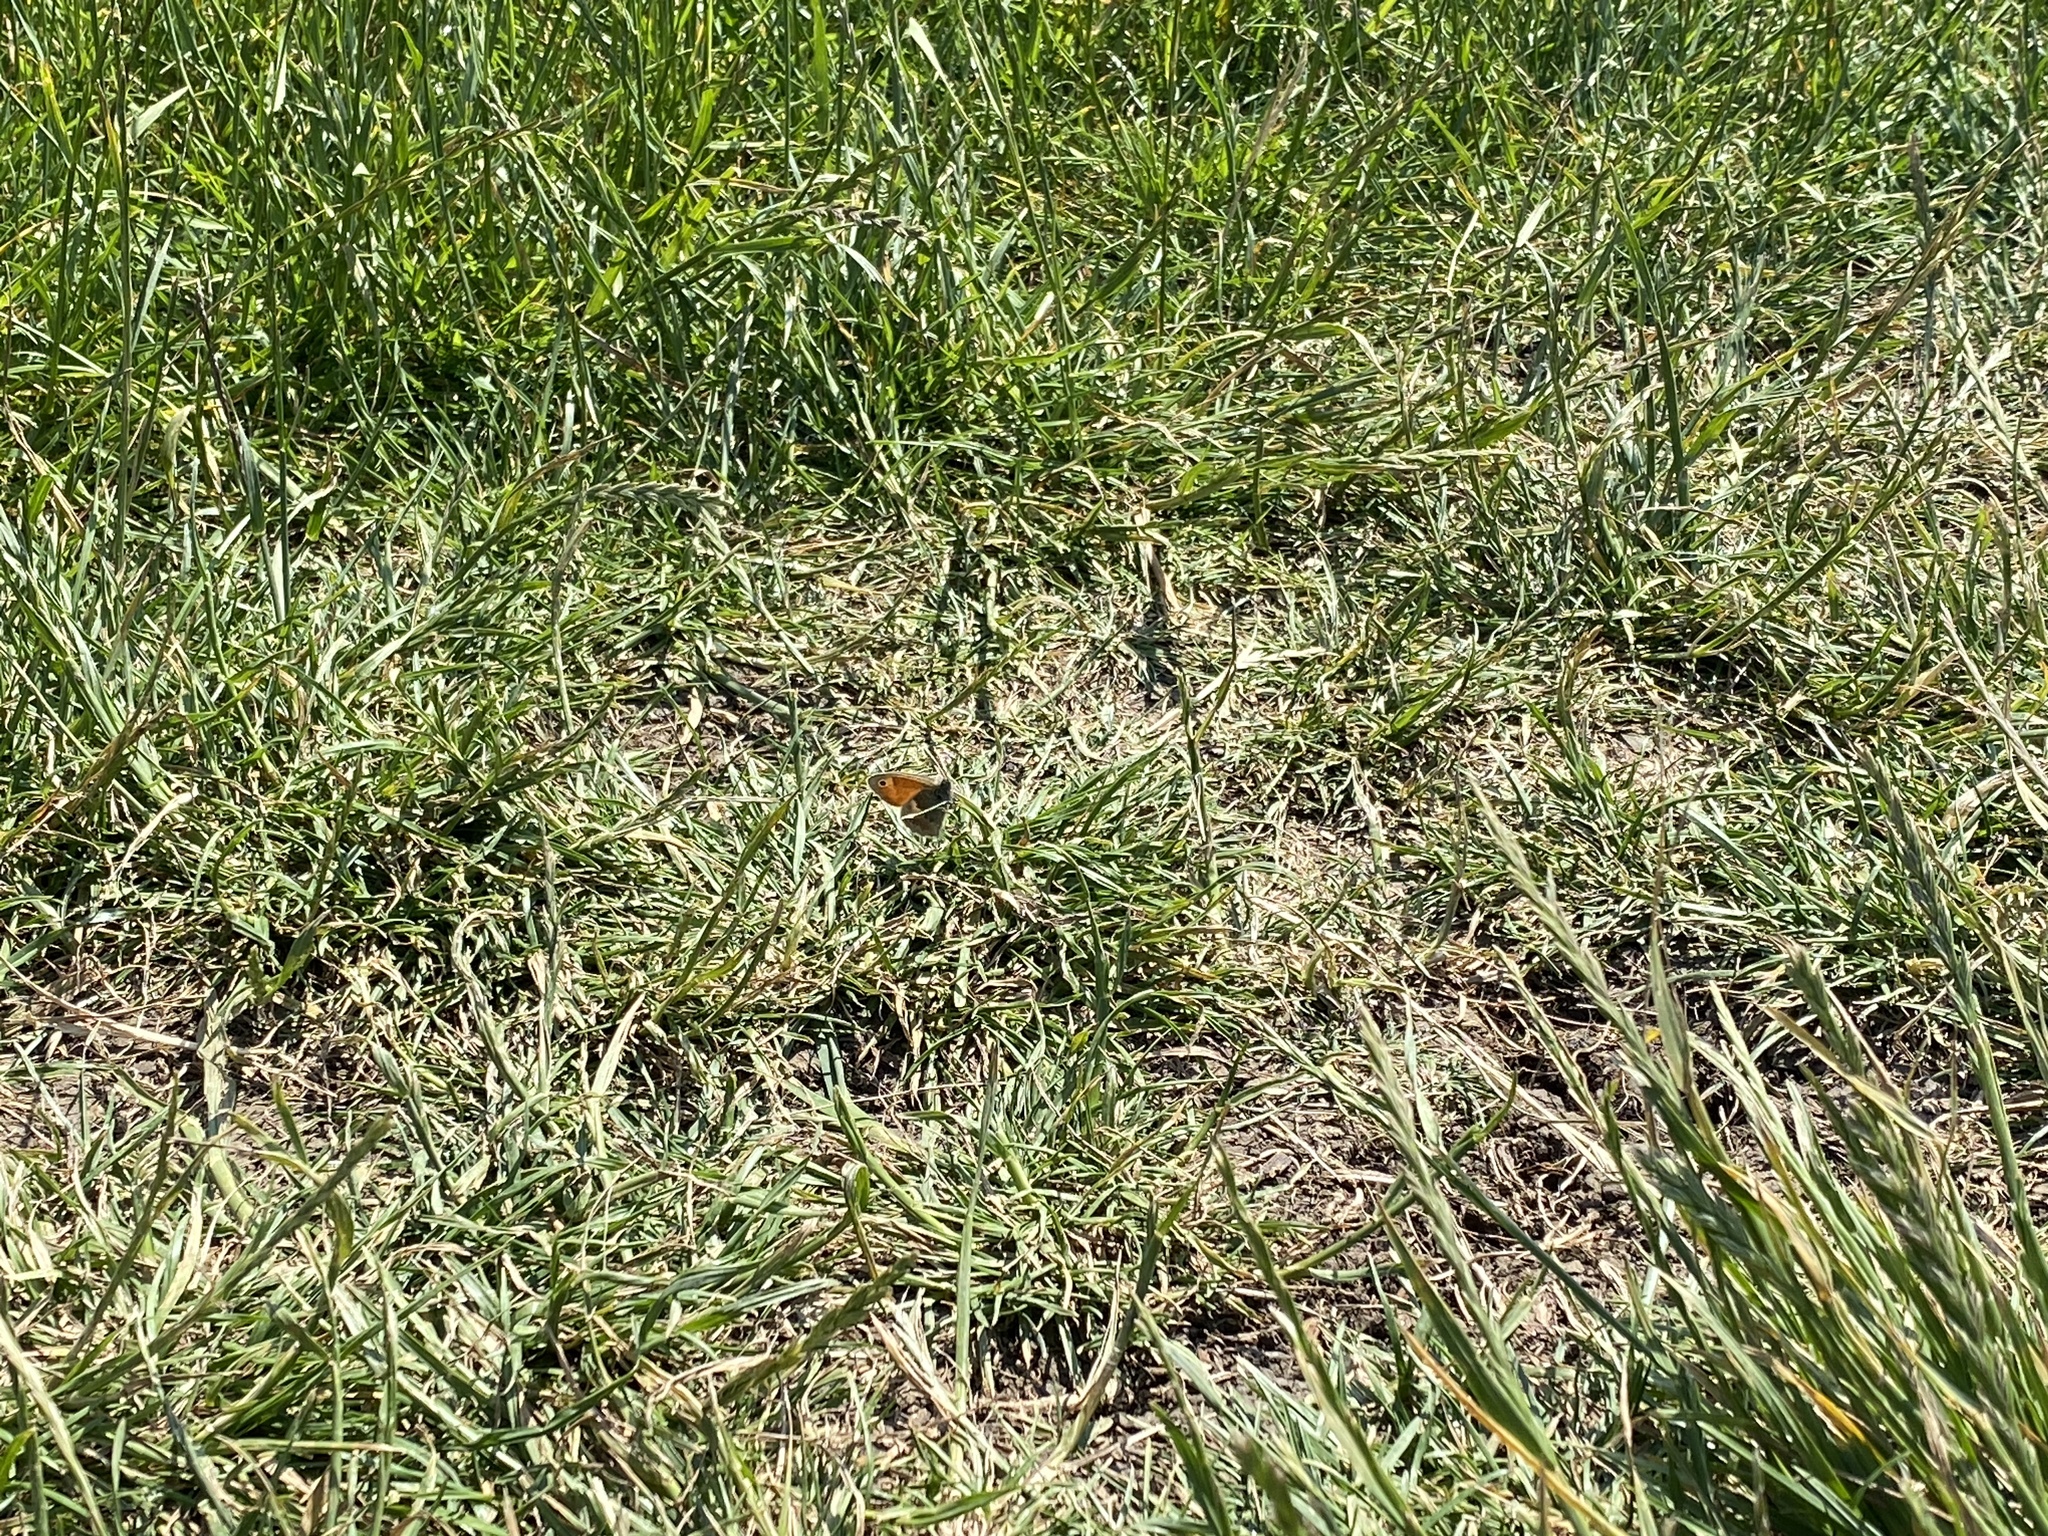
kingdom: Animalia
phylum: Arthropoda
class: Insecta
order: Lepidoptera
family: Nymphalidae
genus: Coenonympha
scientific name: Coenonympha pamphilus
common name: Small heath
